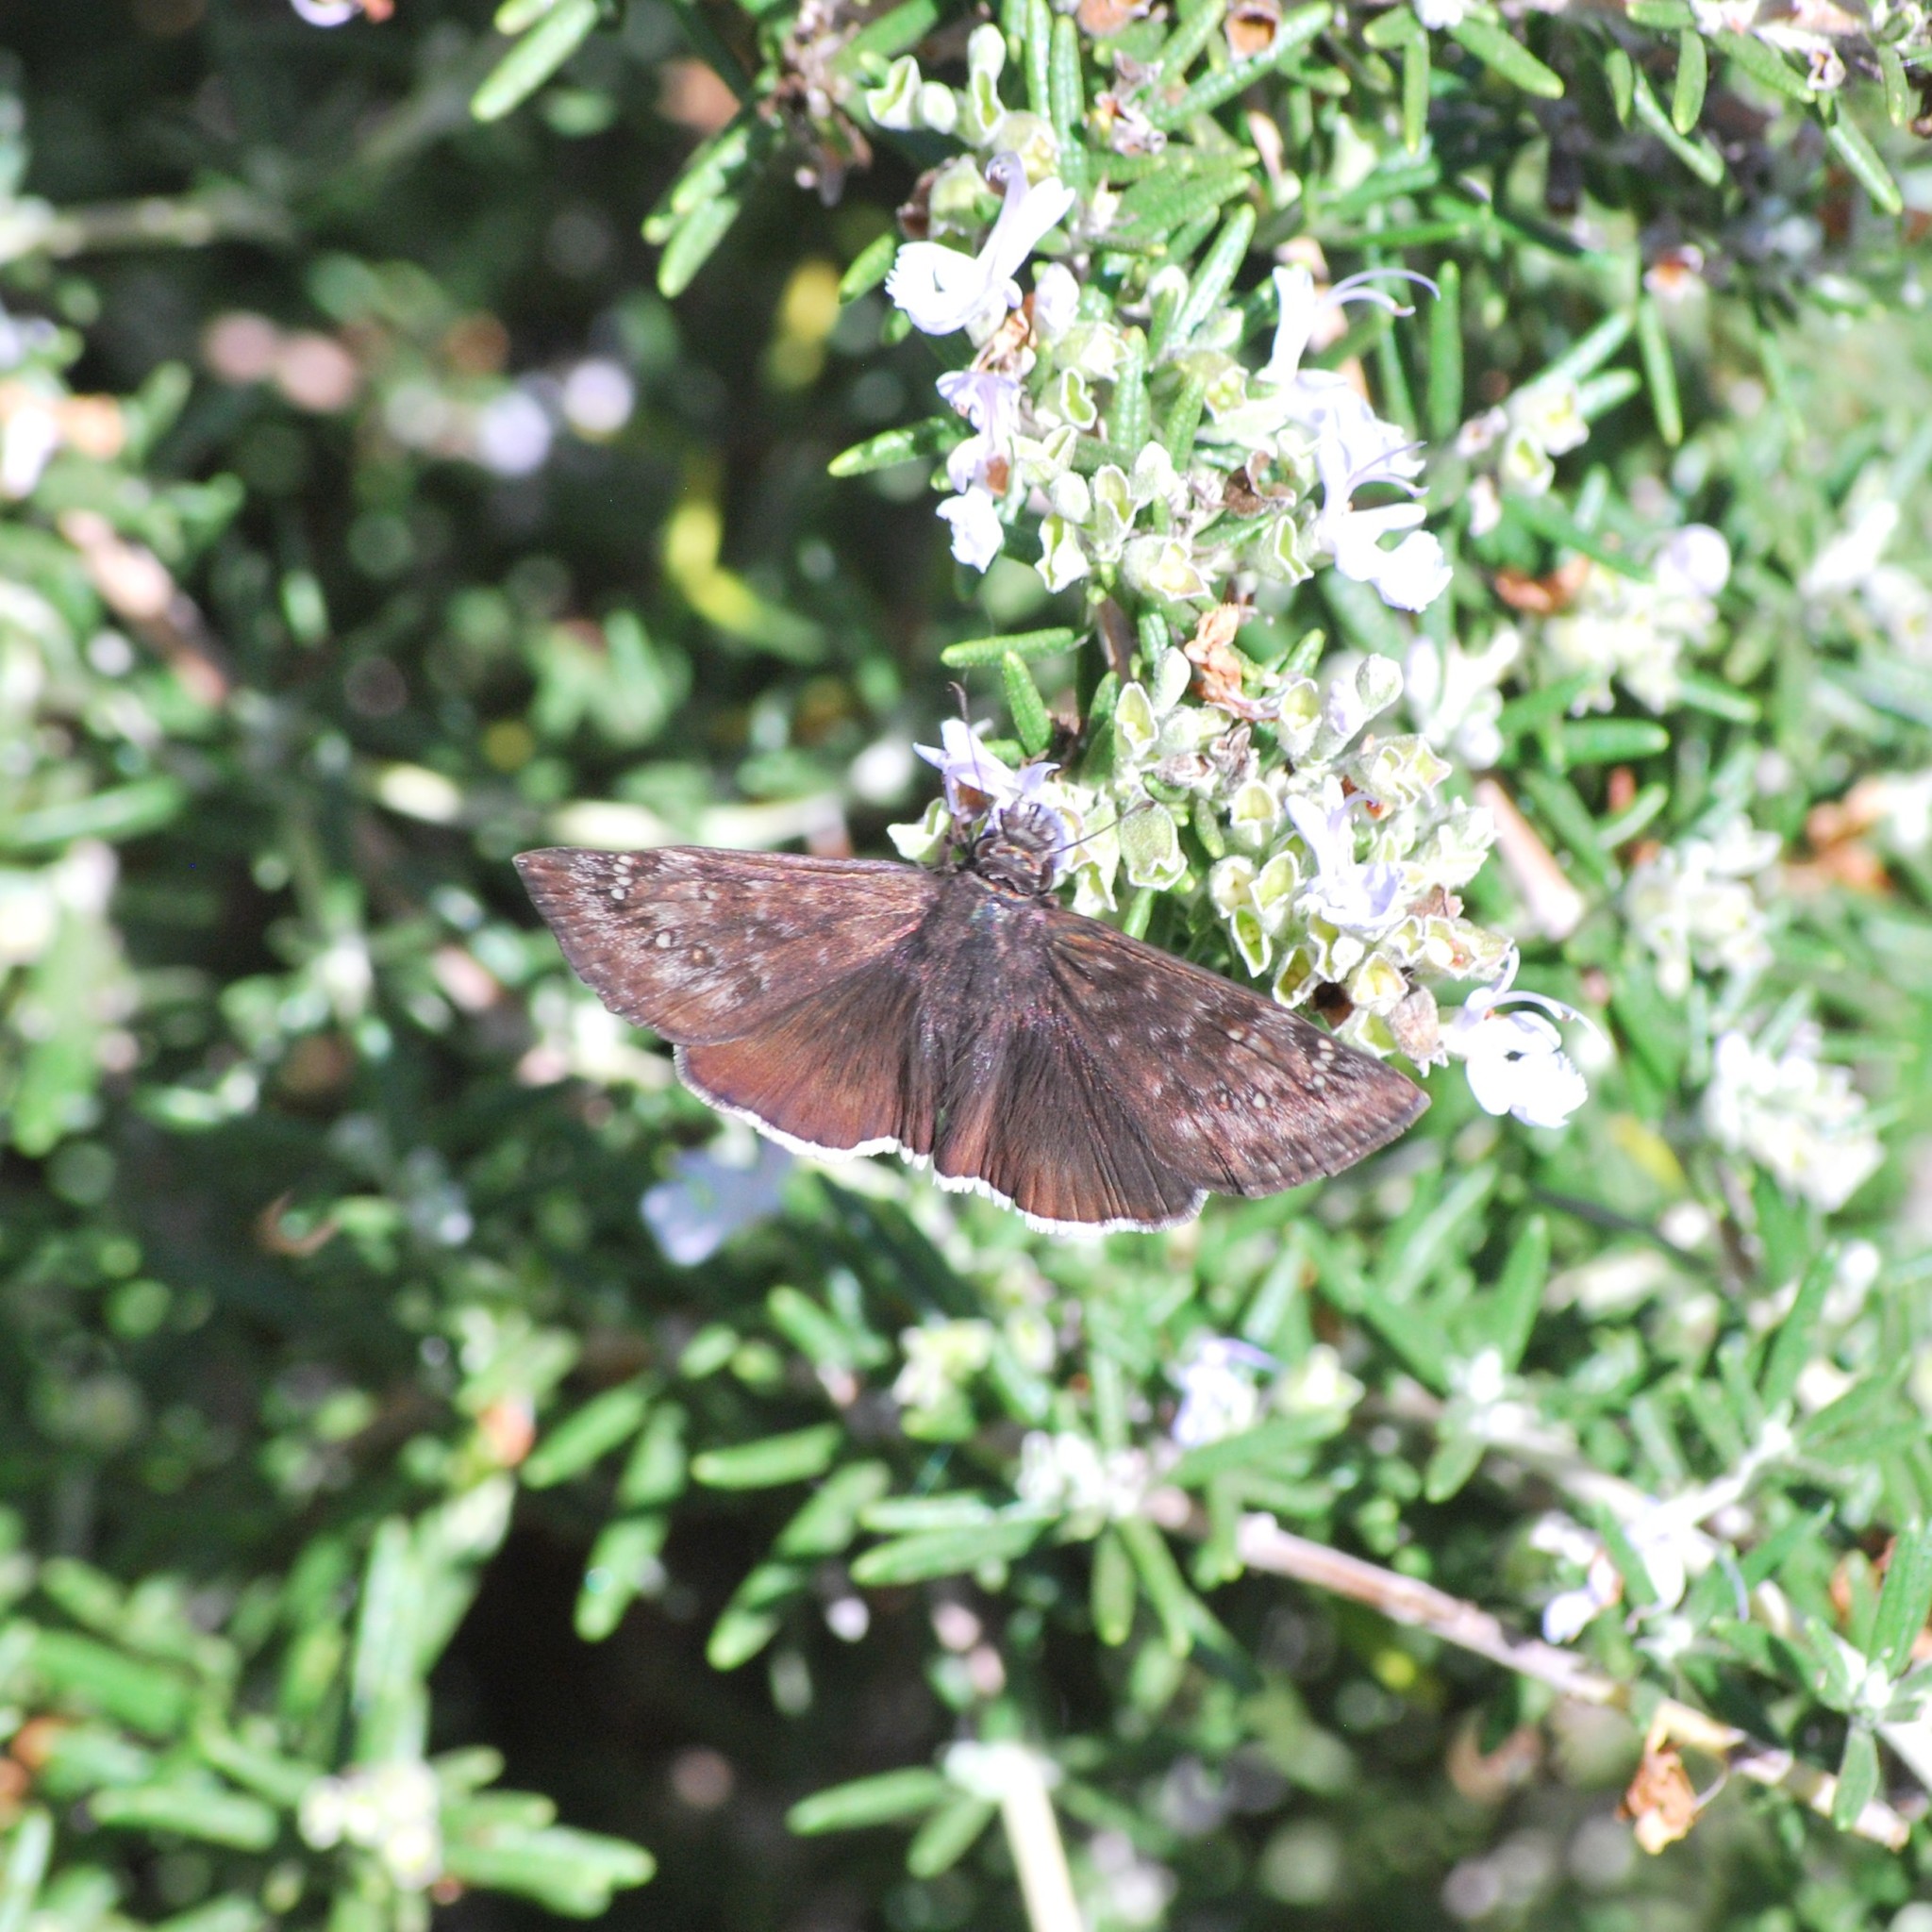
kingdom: Animalia
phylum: Arthropoda
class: Insecta
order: Lepidoptera
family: Hesperiidae
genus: Erynnis
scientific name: Erynnis tristis
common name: Mournful duskywing
